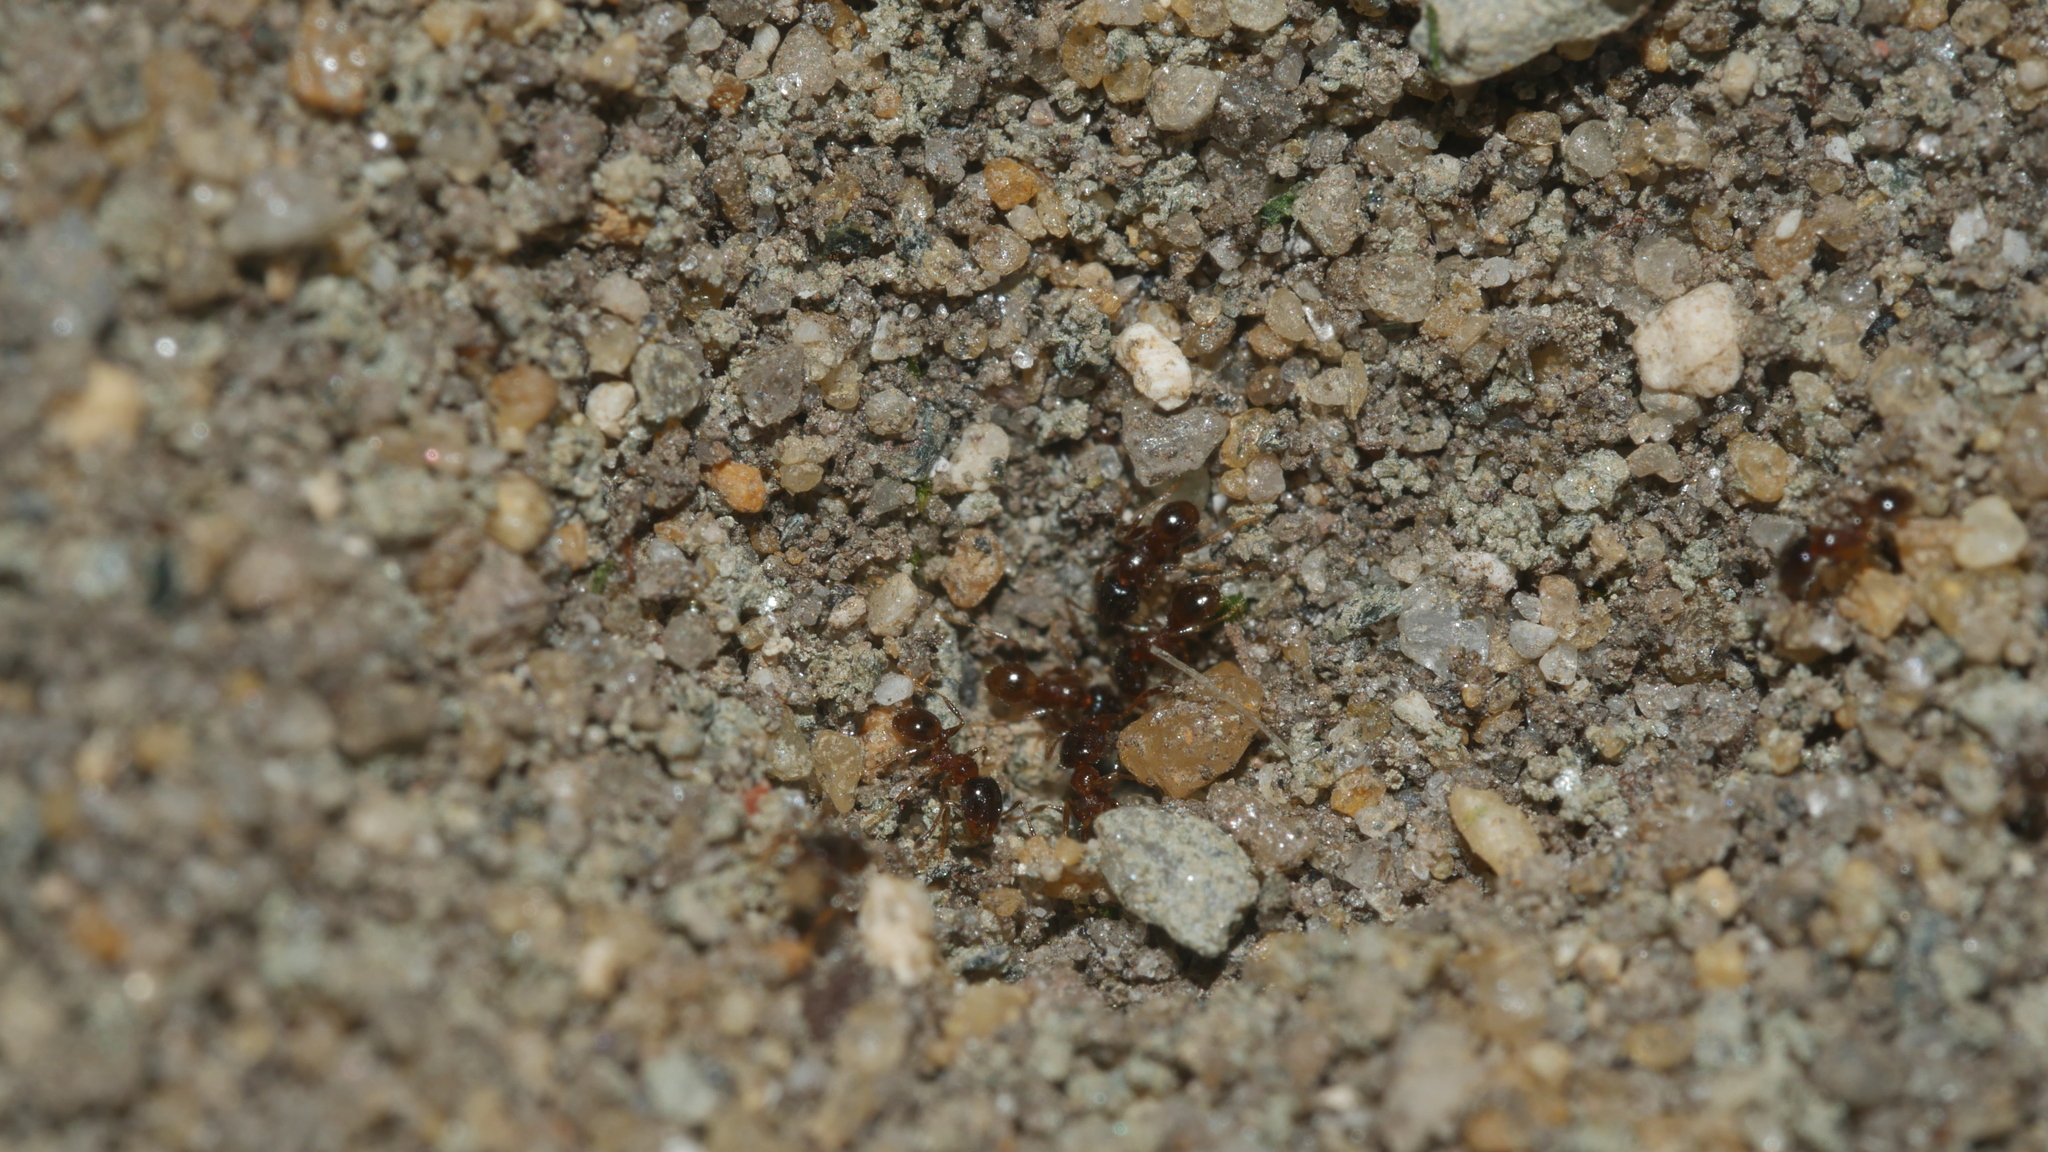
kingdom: Animalia
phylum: Arthropoda
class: Insecta
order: Hymenoptera
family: Formicidae
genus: Pheidole
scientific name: Pheidole bicarinata
